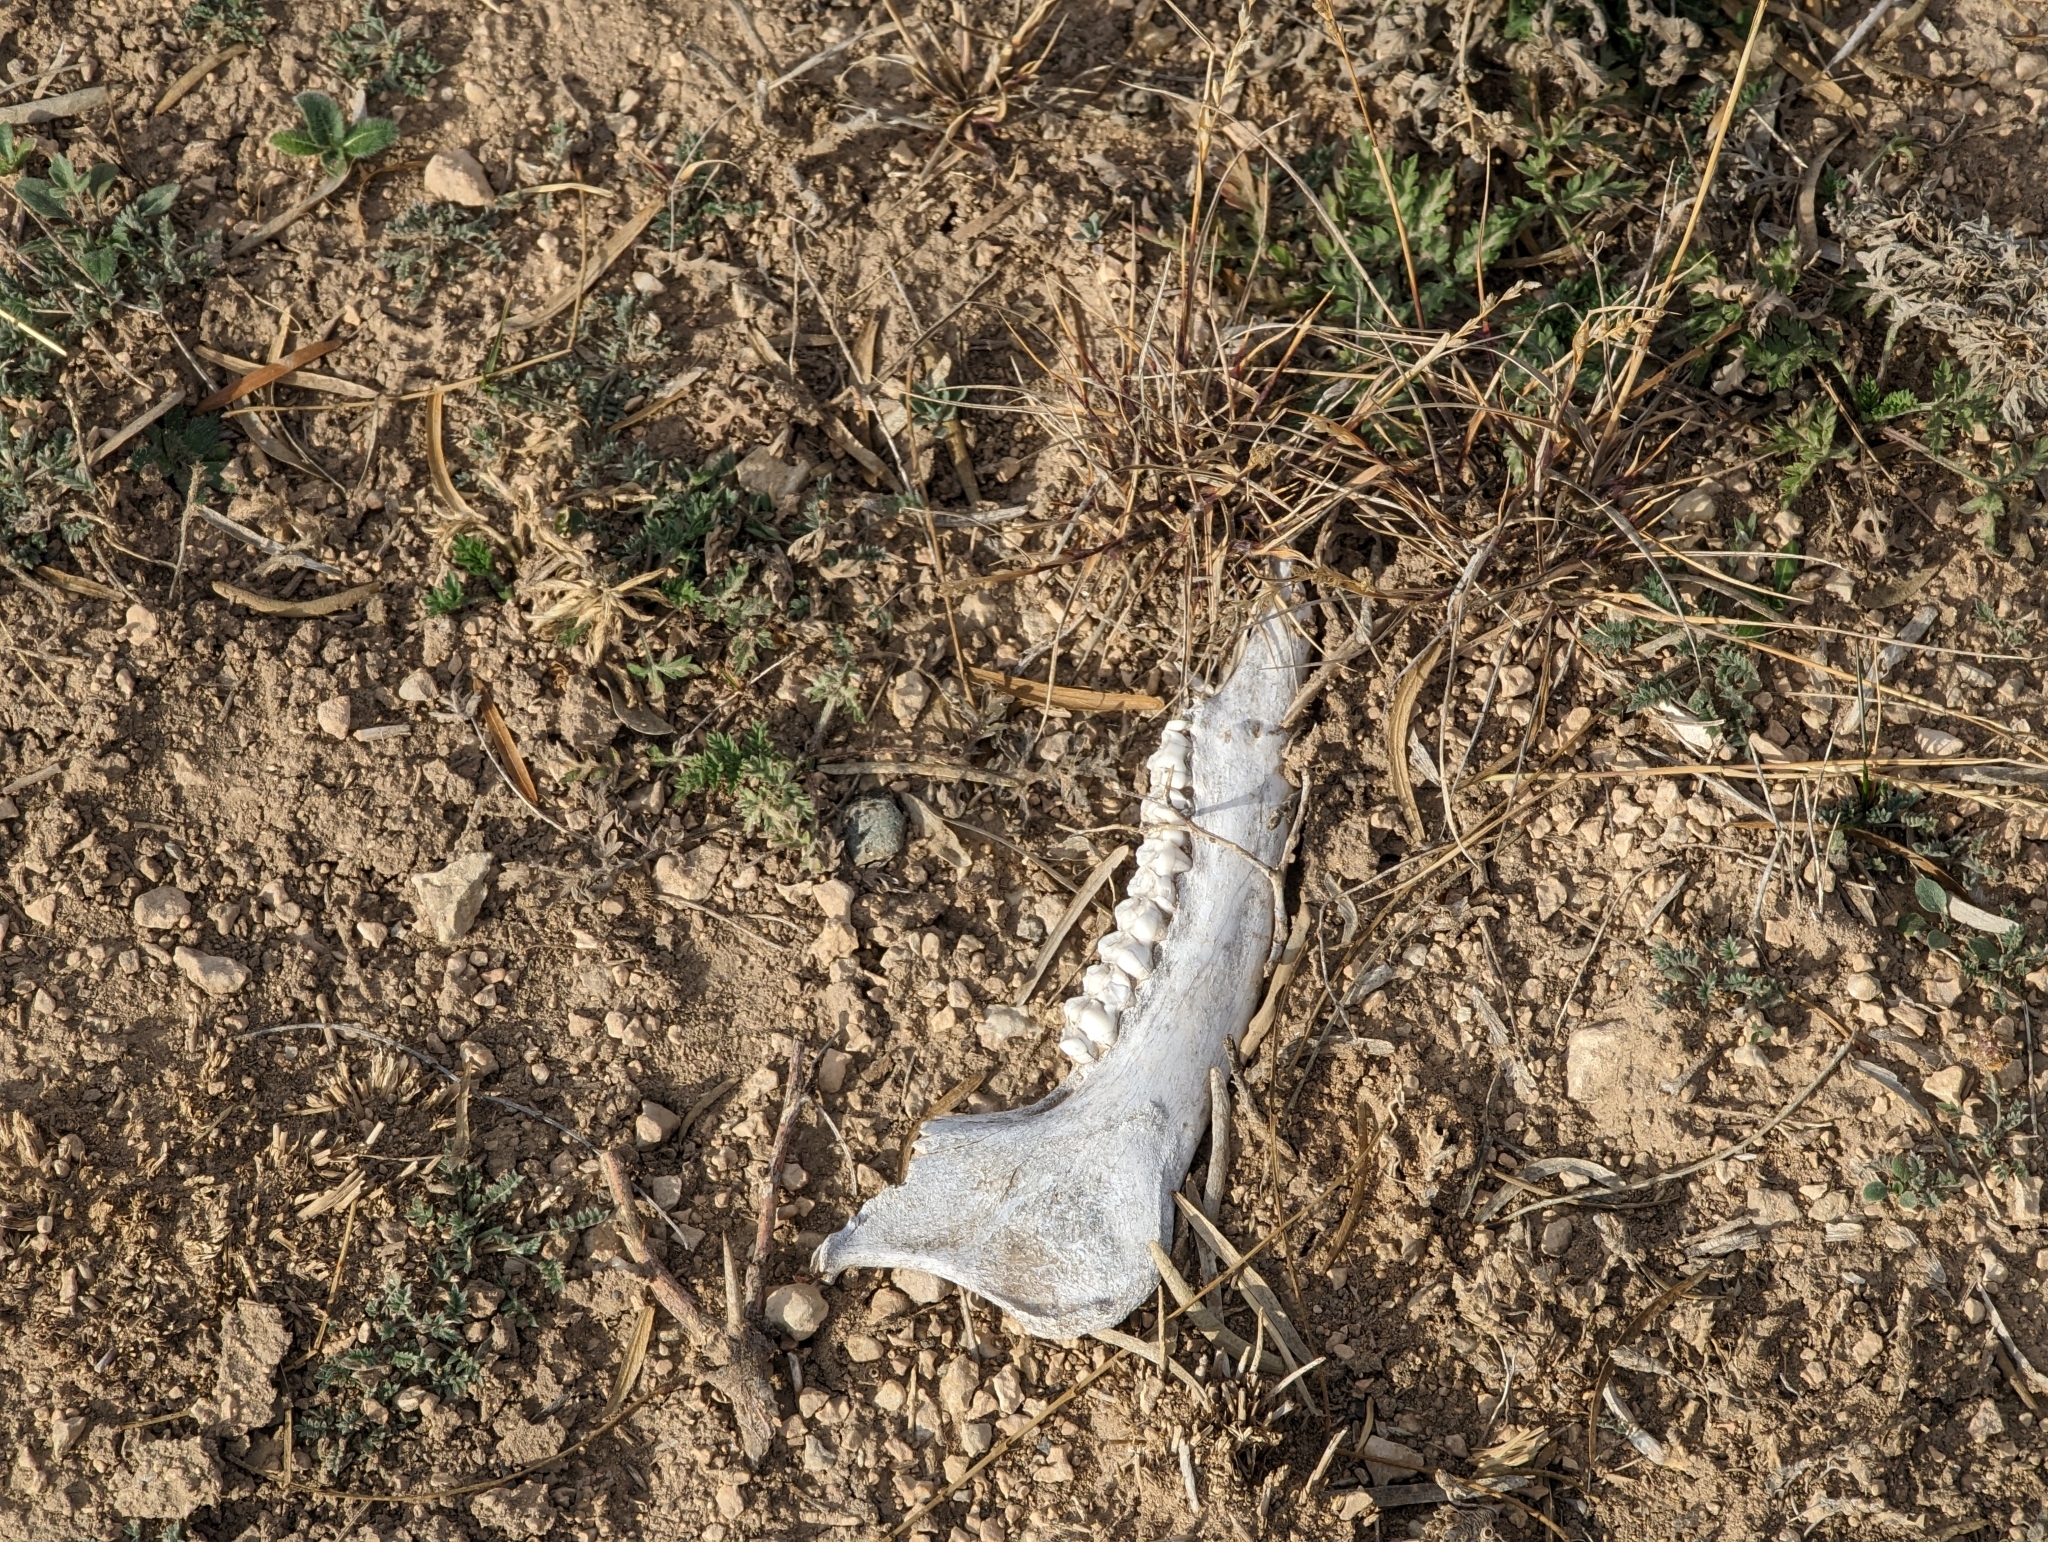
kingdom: Animalia
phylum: Chordata
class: Mammalia
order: Artiodactyla
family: Cervidae
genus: Odocoileus
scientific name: Odocoileus virginianus
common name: White-tailed deer
